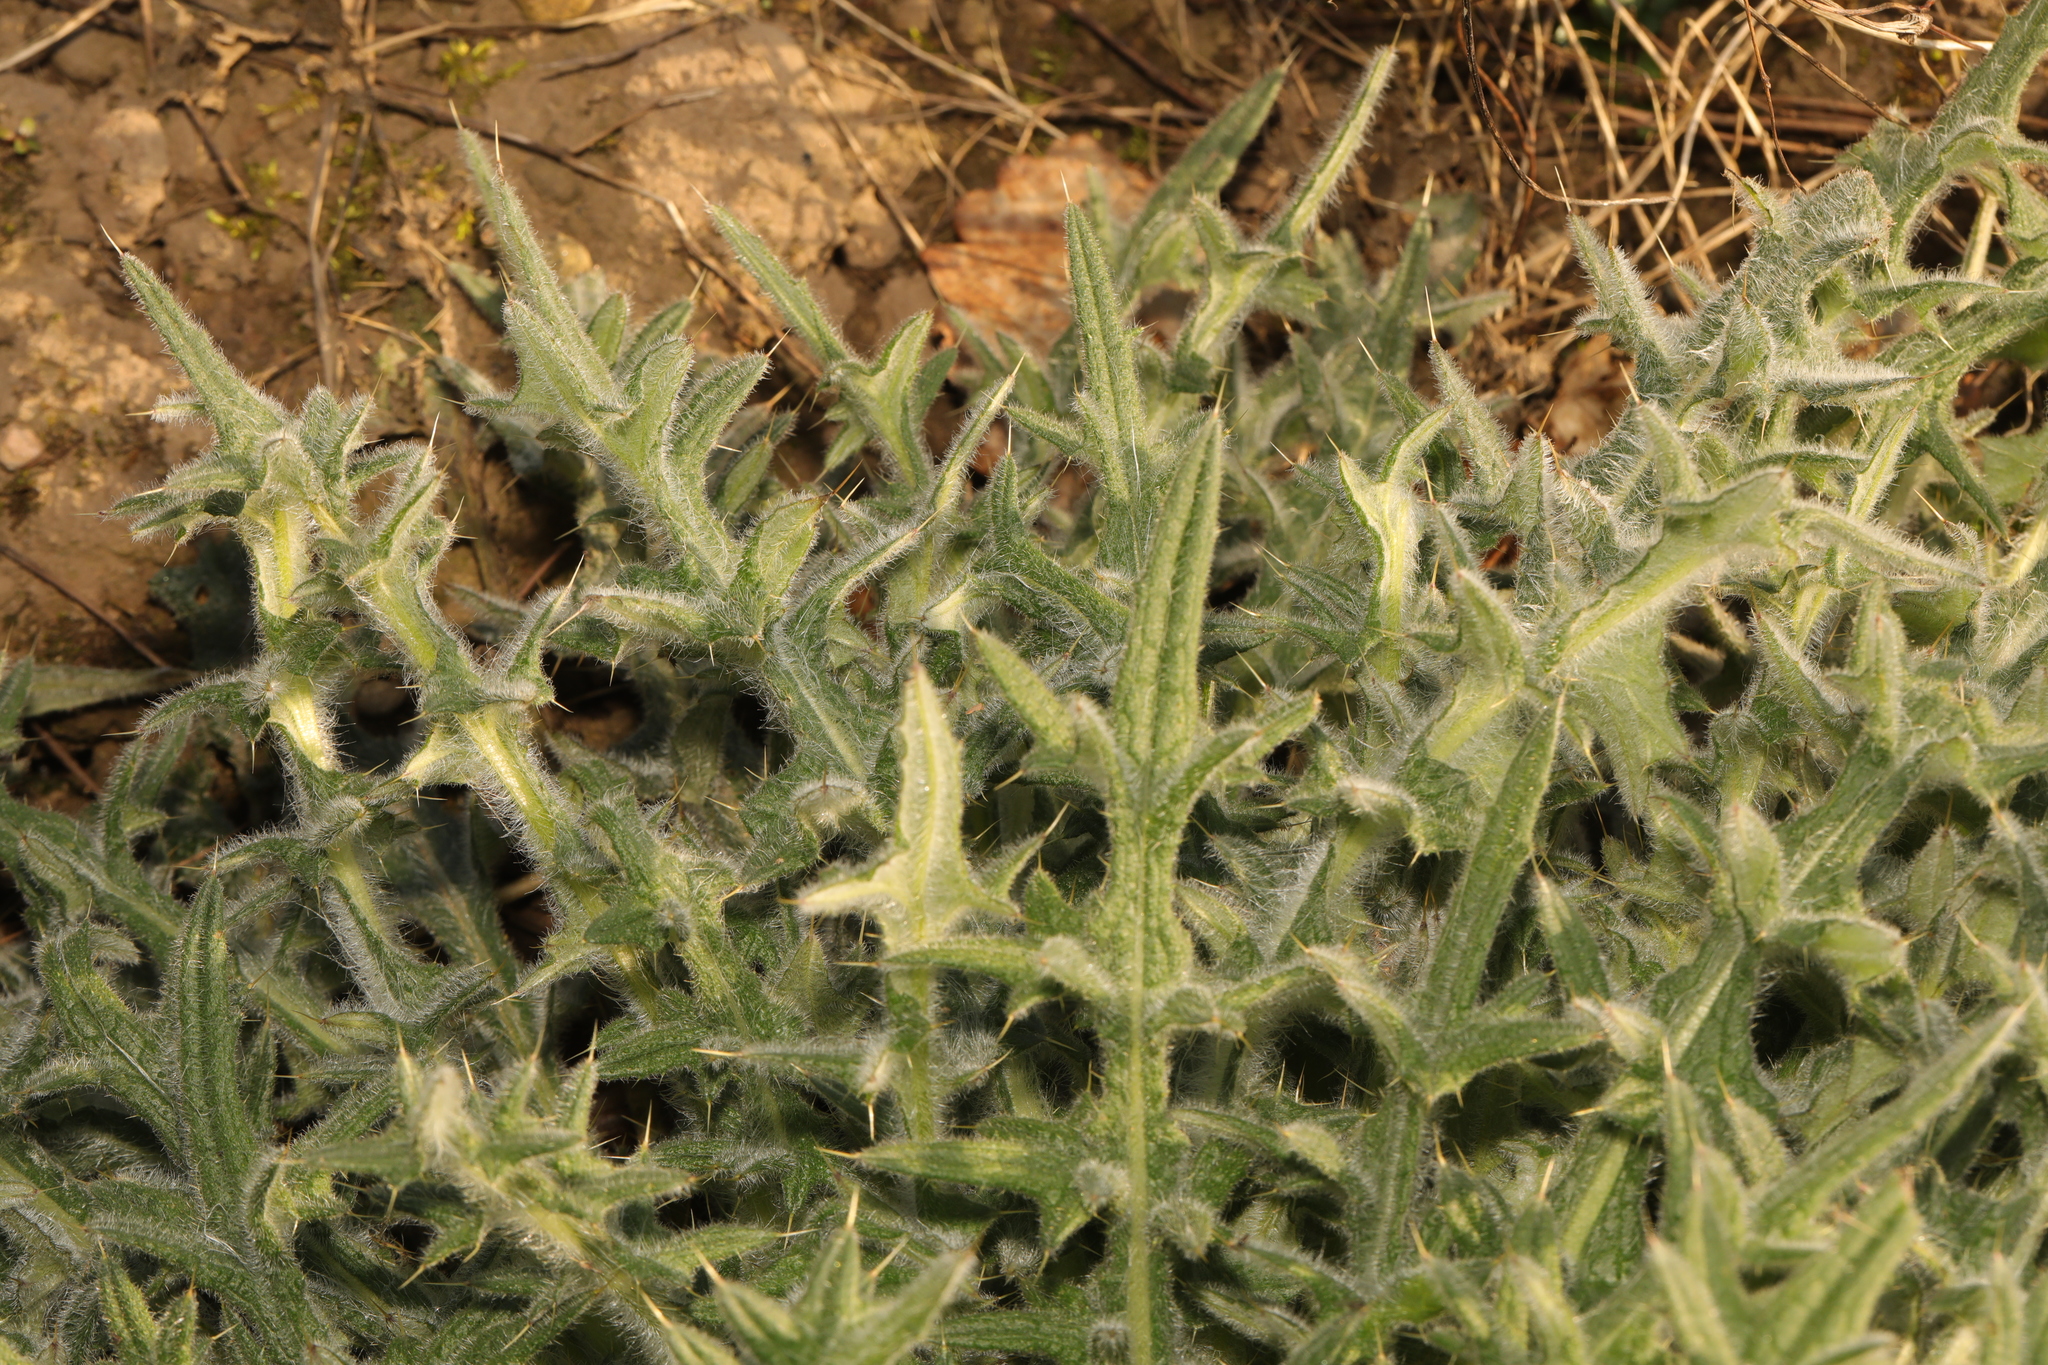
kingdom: Plantae
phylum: Tracheophyta
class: Magnoliopsida
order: Asterales
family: Asteraceae
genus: Cirsium
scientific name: Cirsium vulgare
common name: Bull thistle
